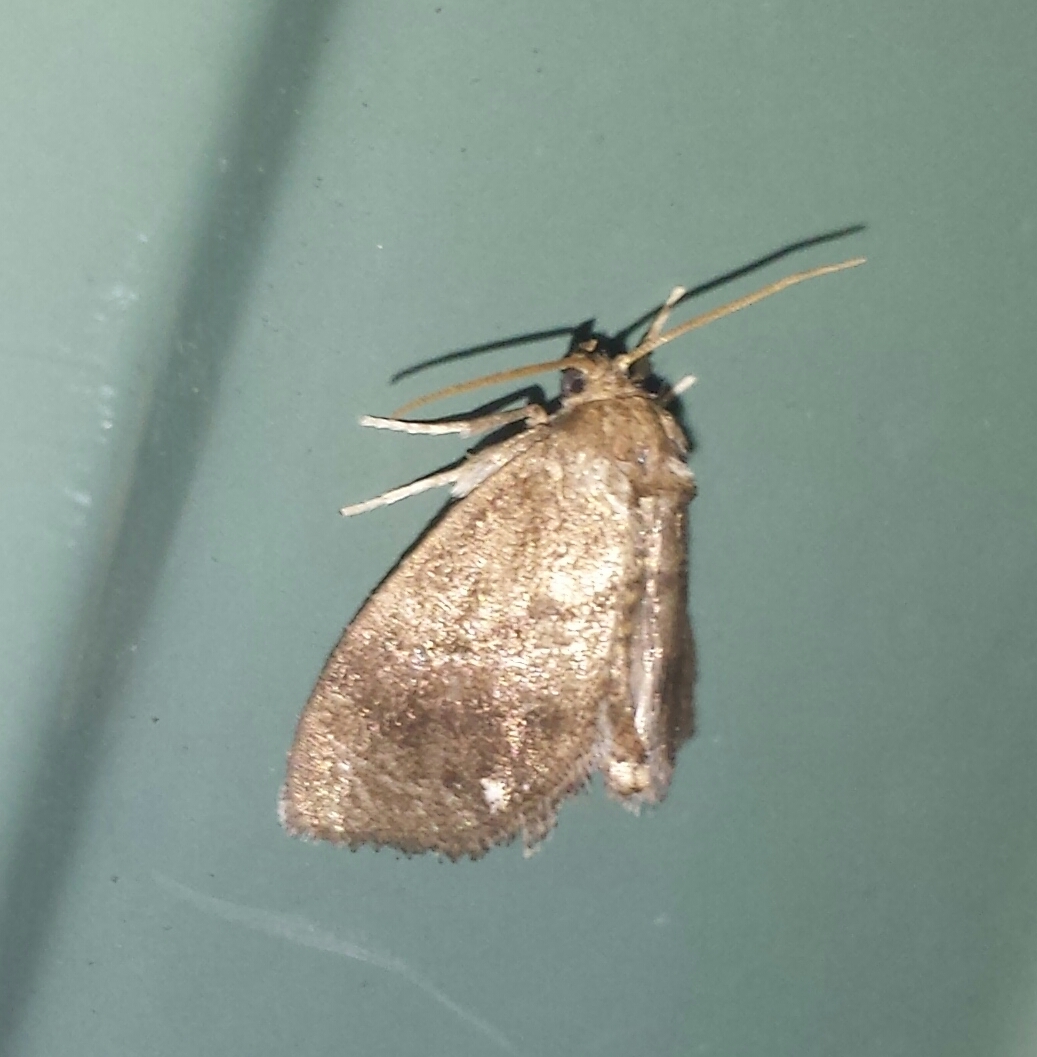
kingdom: Animalia
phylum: Arthropoda
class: Insecta
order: Lepidoptera
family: Limacodidae
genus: Packardia
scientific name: Packardia geminata
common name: Jeweled tailed slug moth
